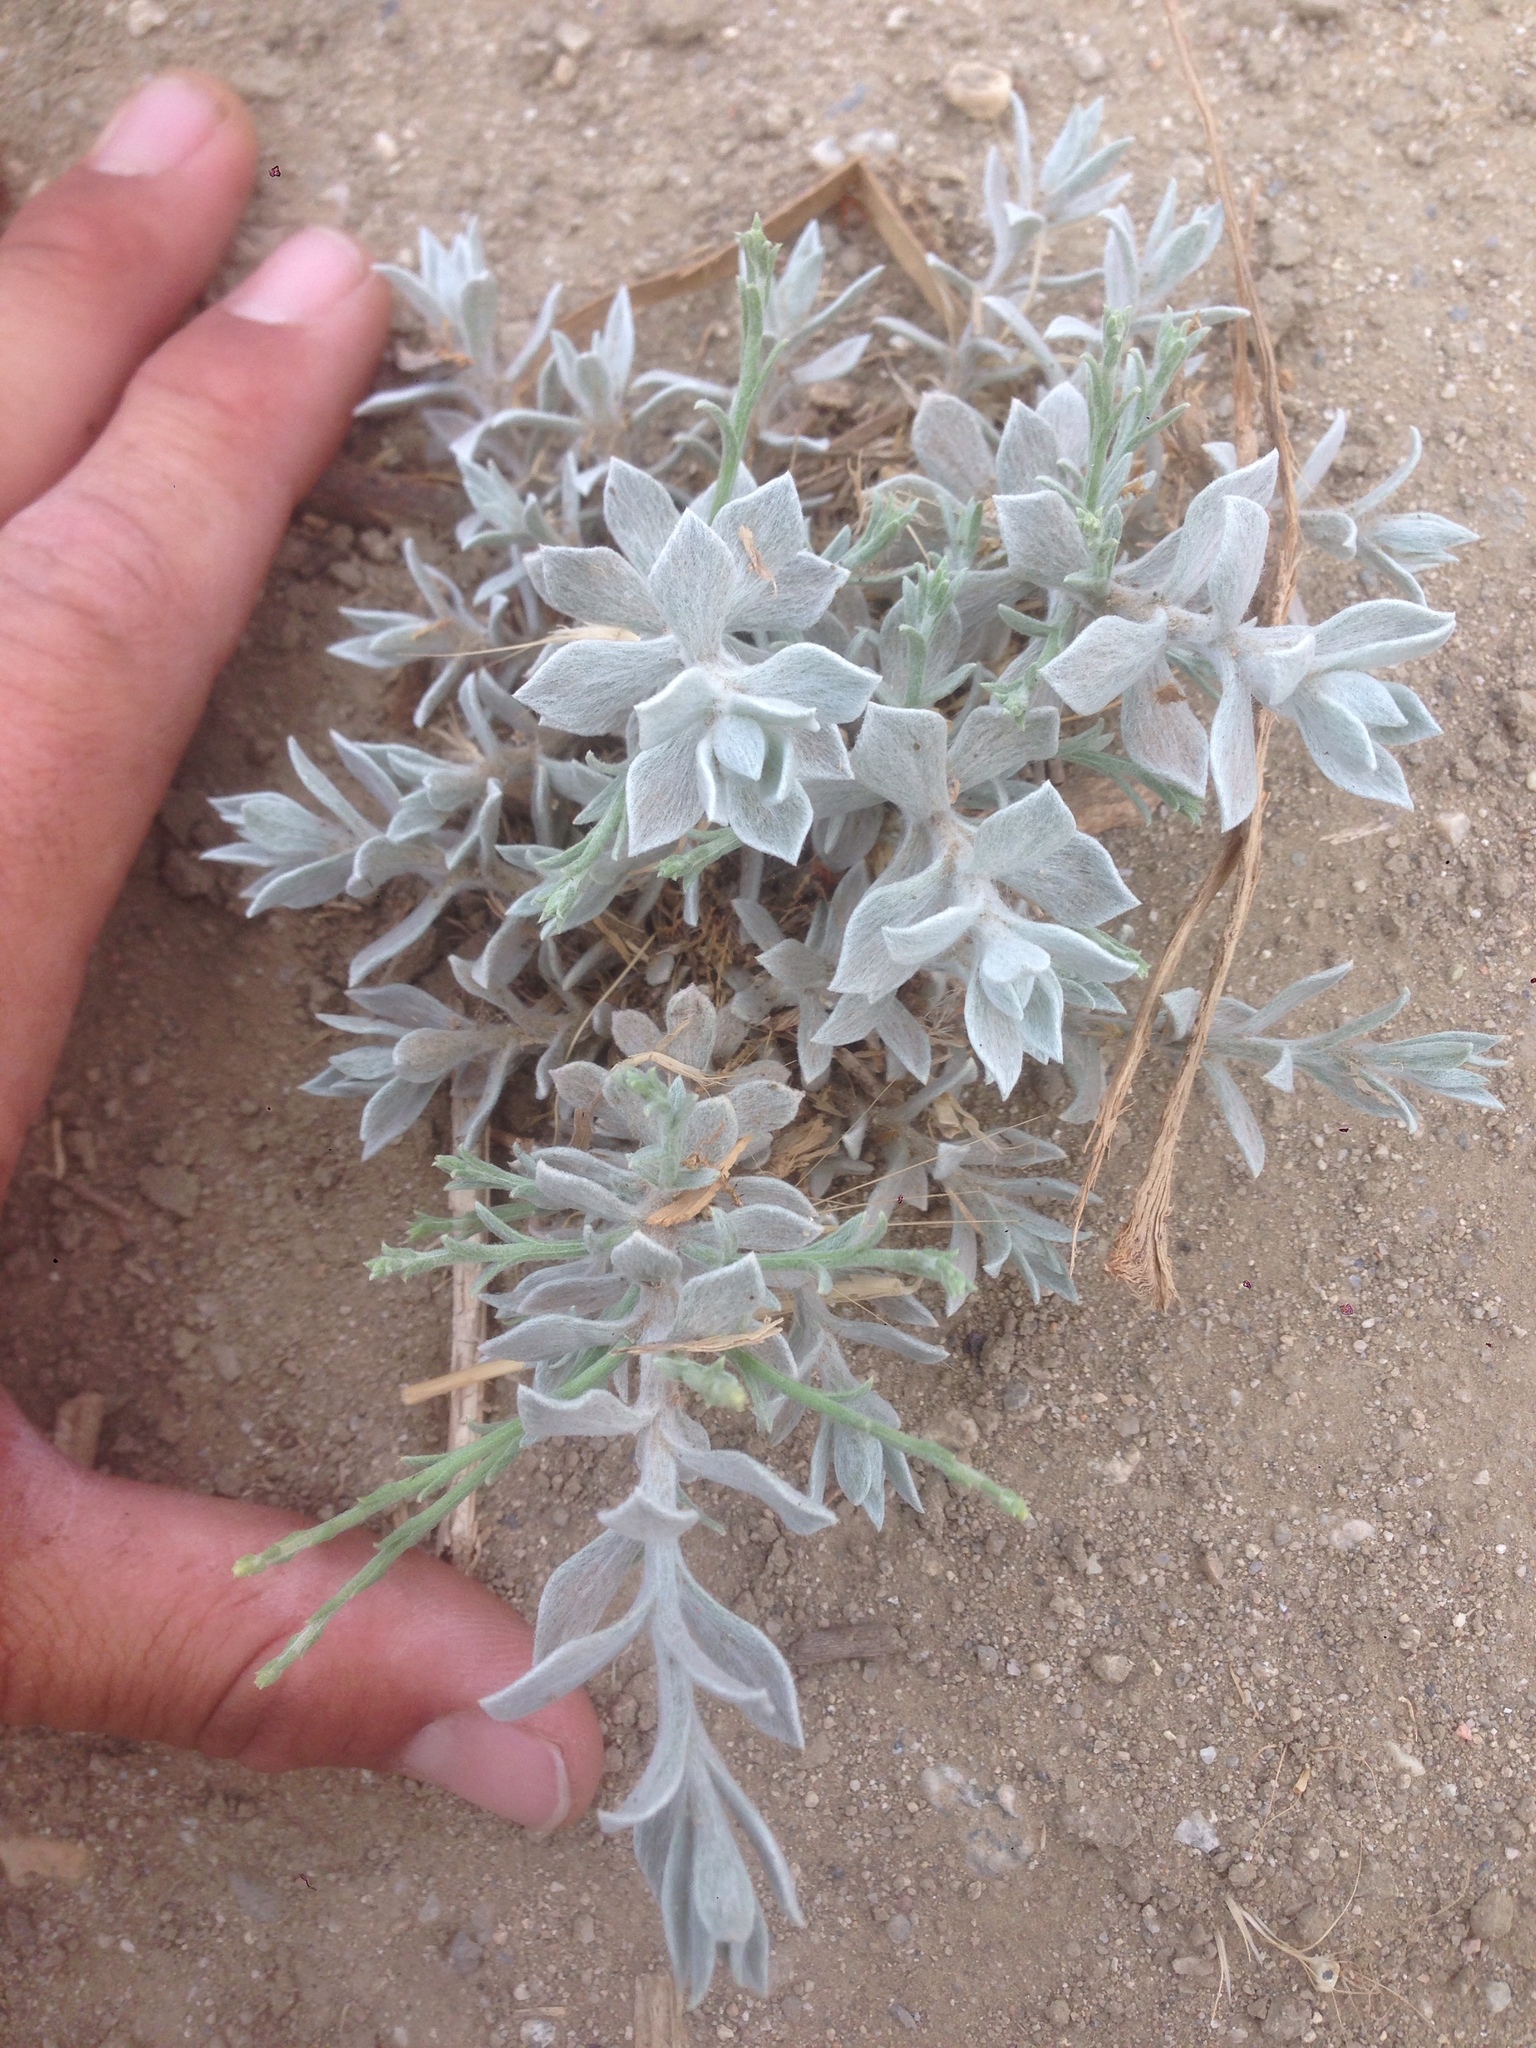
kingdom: Plantae
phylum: Tracheophyta
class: Magnoliopsida
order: Asterales
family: Asteraceae
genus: Lepidospartum
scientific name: Lepidospartum squamatum
